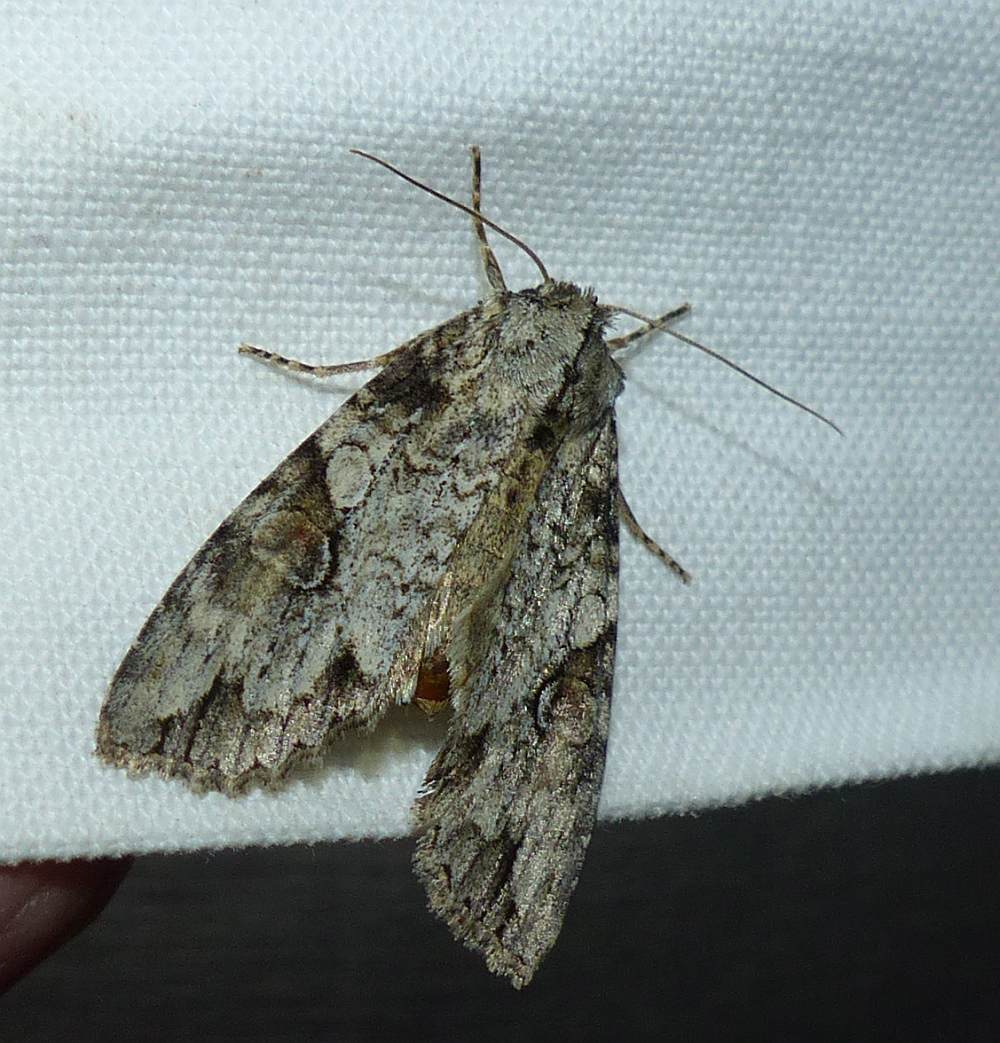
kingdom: Animalia
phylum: Arthropoda
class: Insecta
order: Lepidoptera
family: Noctuidae
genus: Achatia
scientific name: Achatia latex
